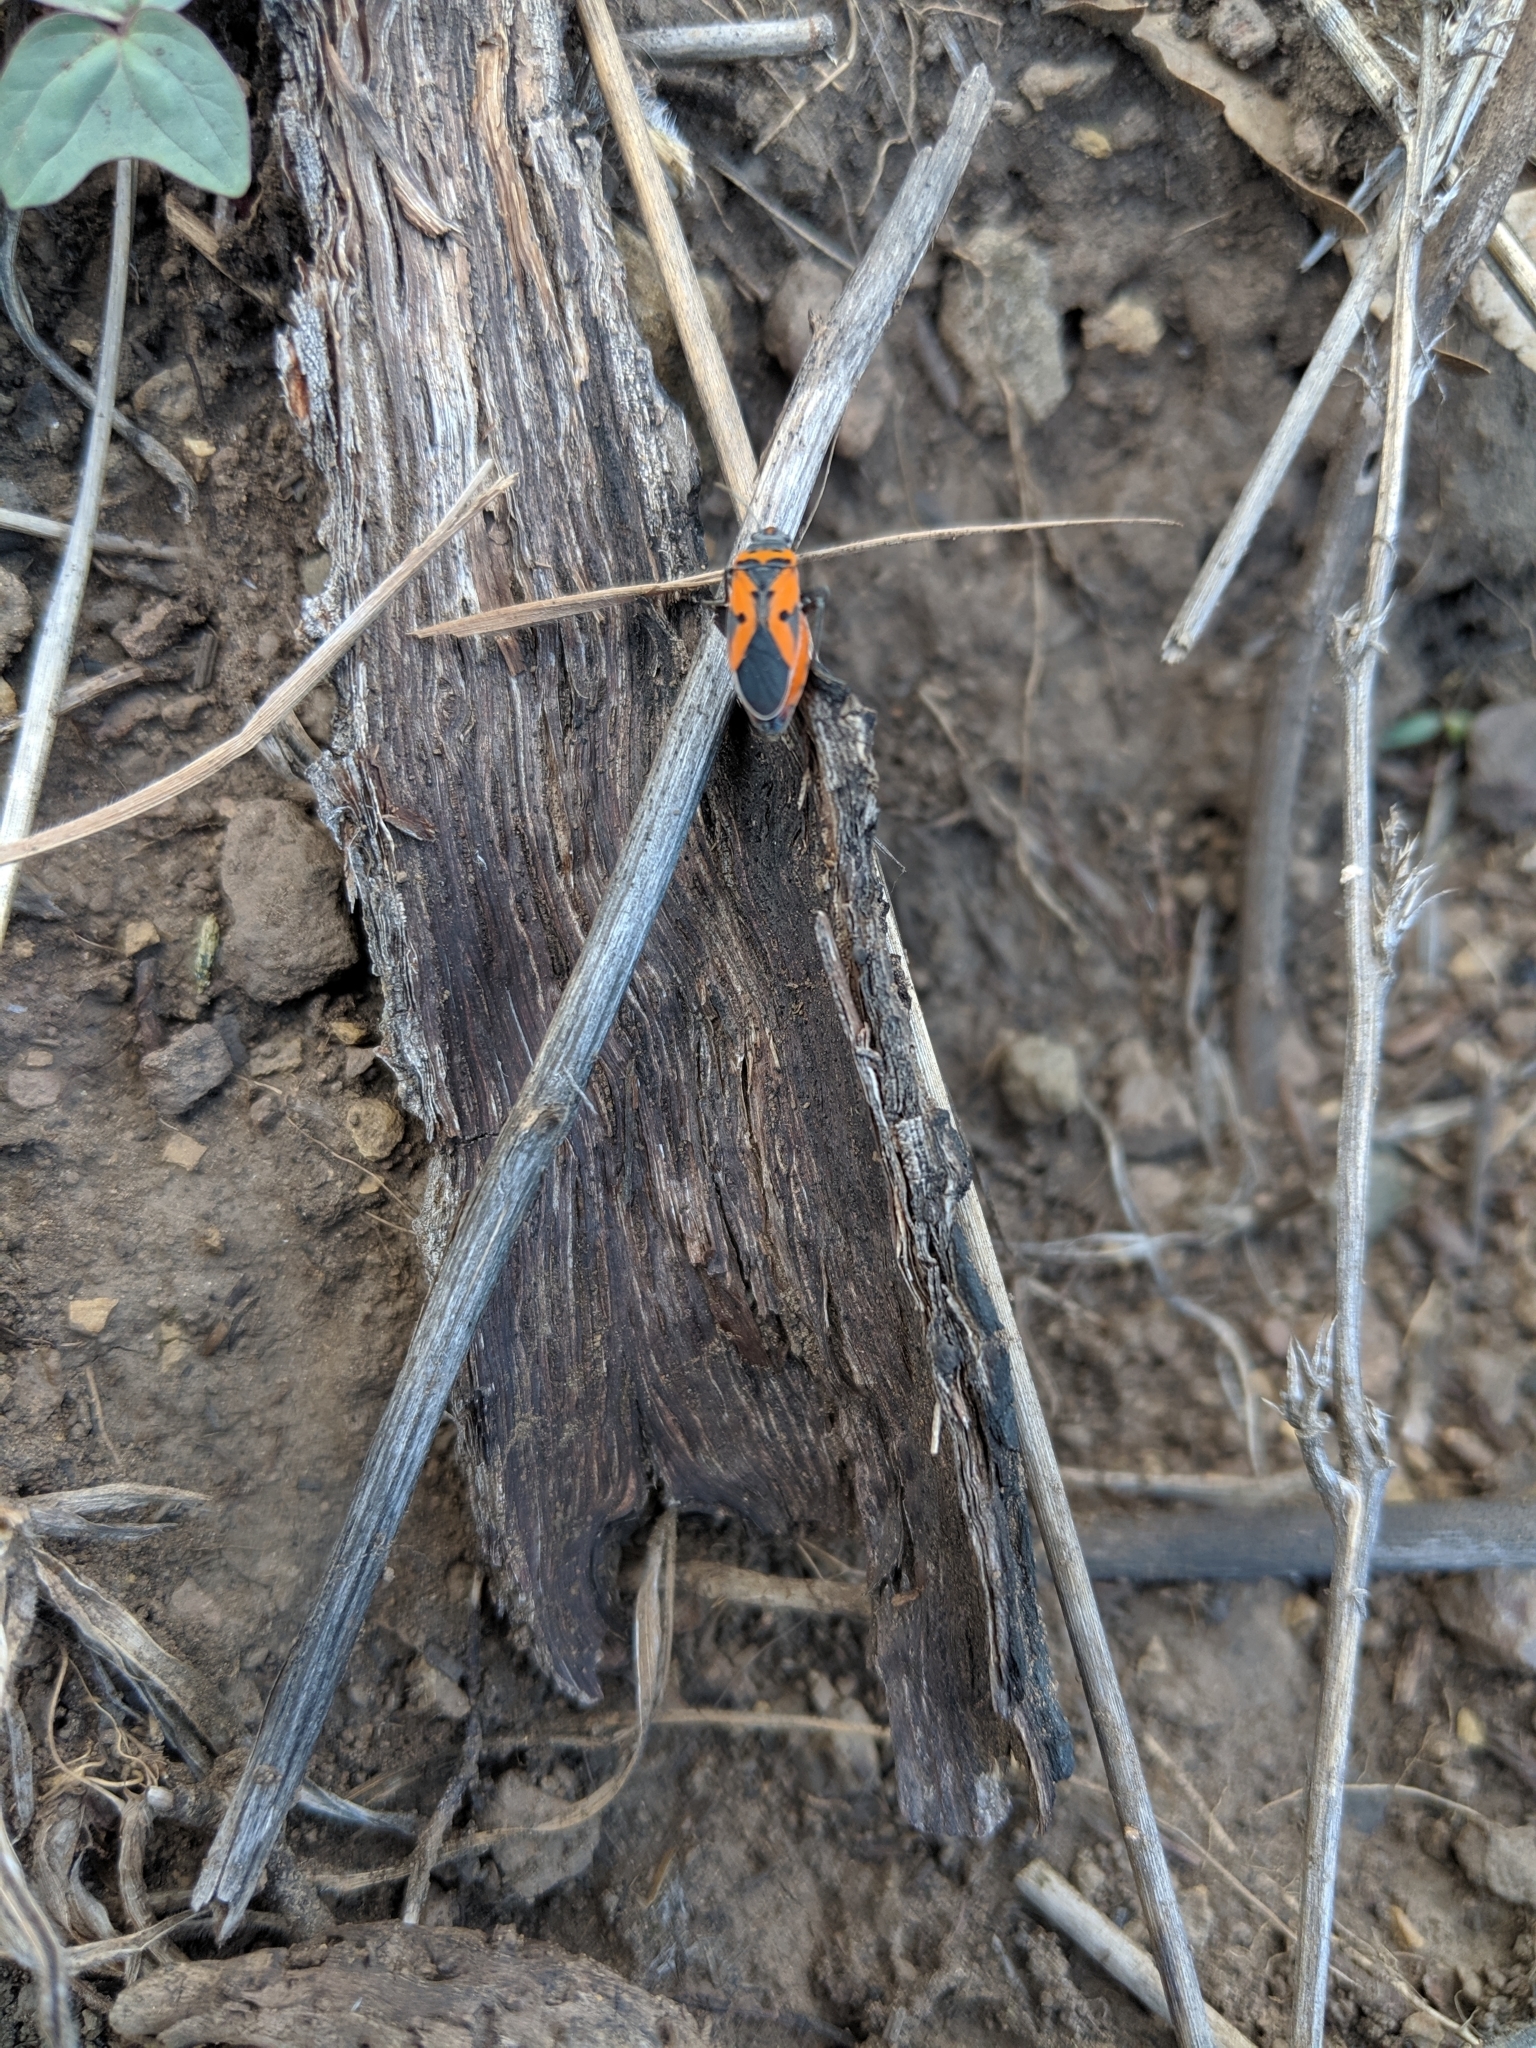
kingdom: Animalia
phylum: Arthropoda
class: Insecta
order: Hemiptera
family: Lygaeidae
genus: Lygaeus
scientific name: Lygaeus reclivatus
